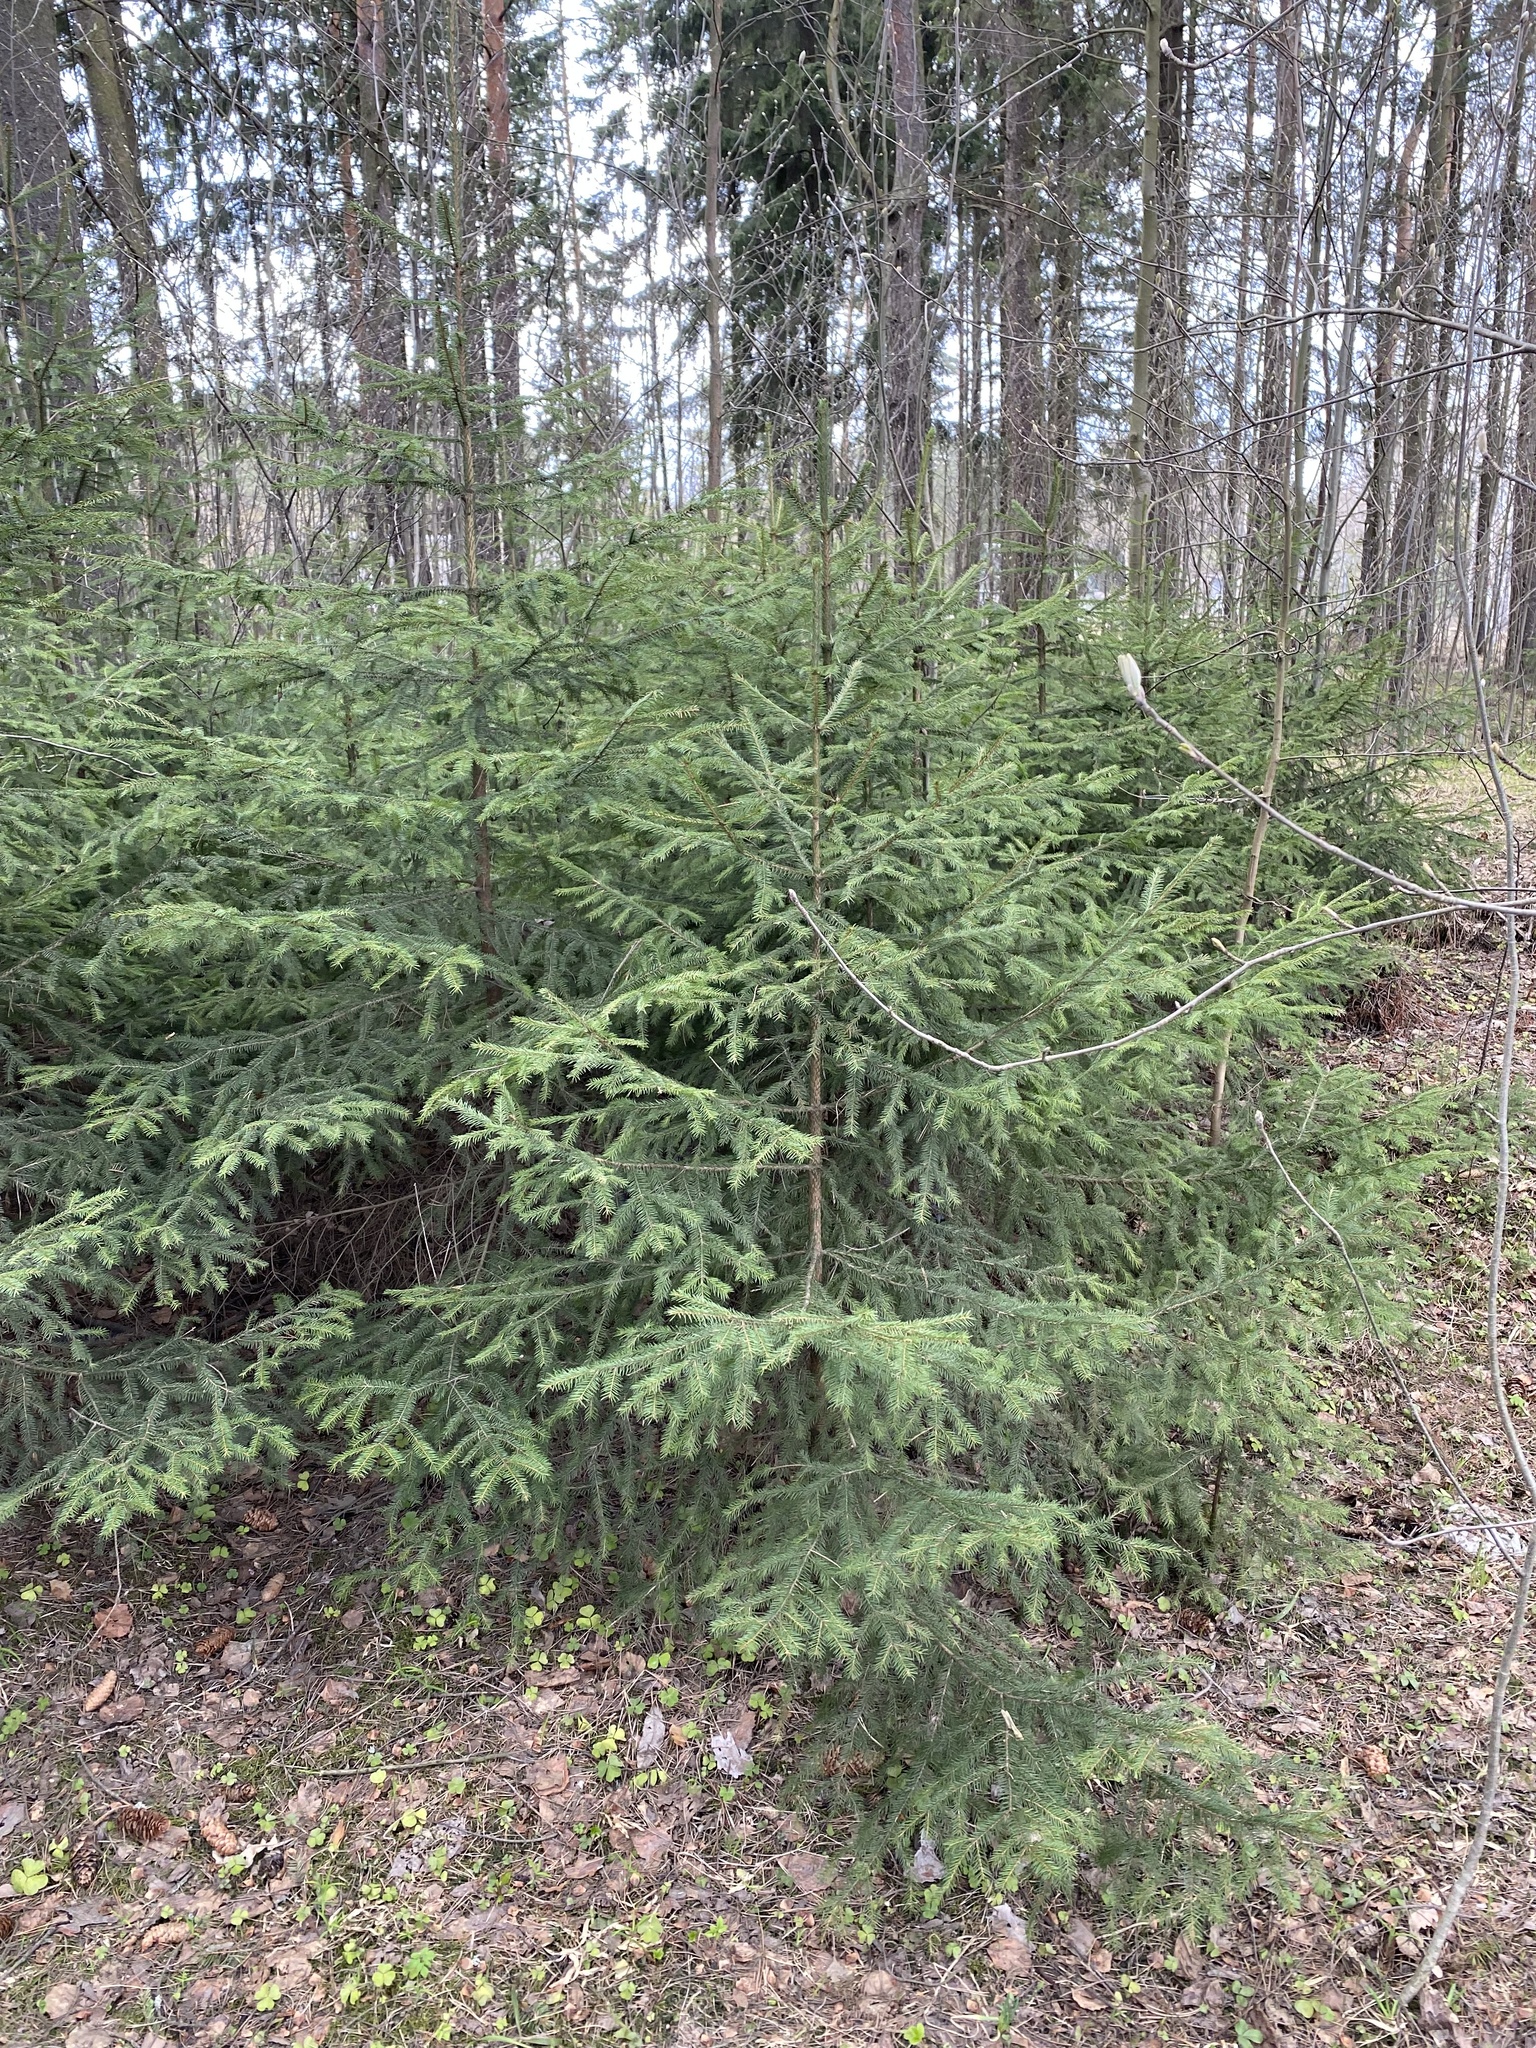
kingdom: Plantae
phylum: Tracheophyta
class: Pinopsida
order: Pinales
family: Pinaceae
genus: Picea
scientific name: Picea
